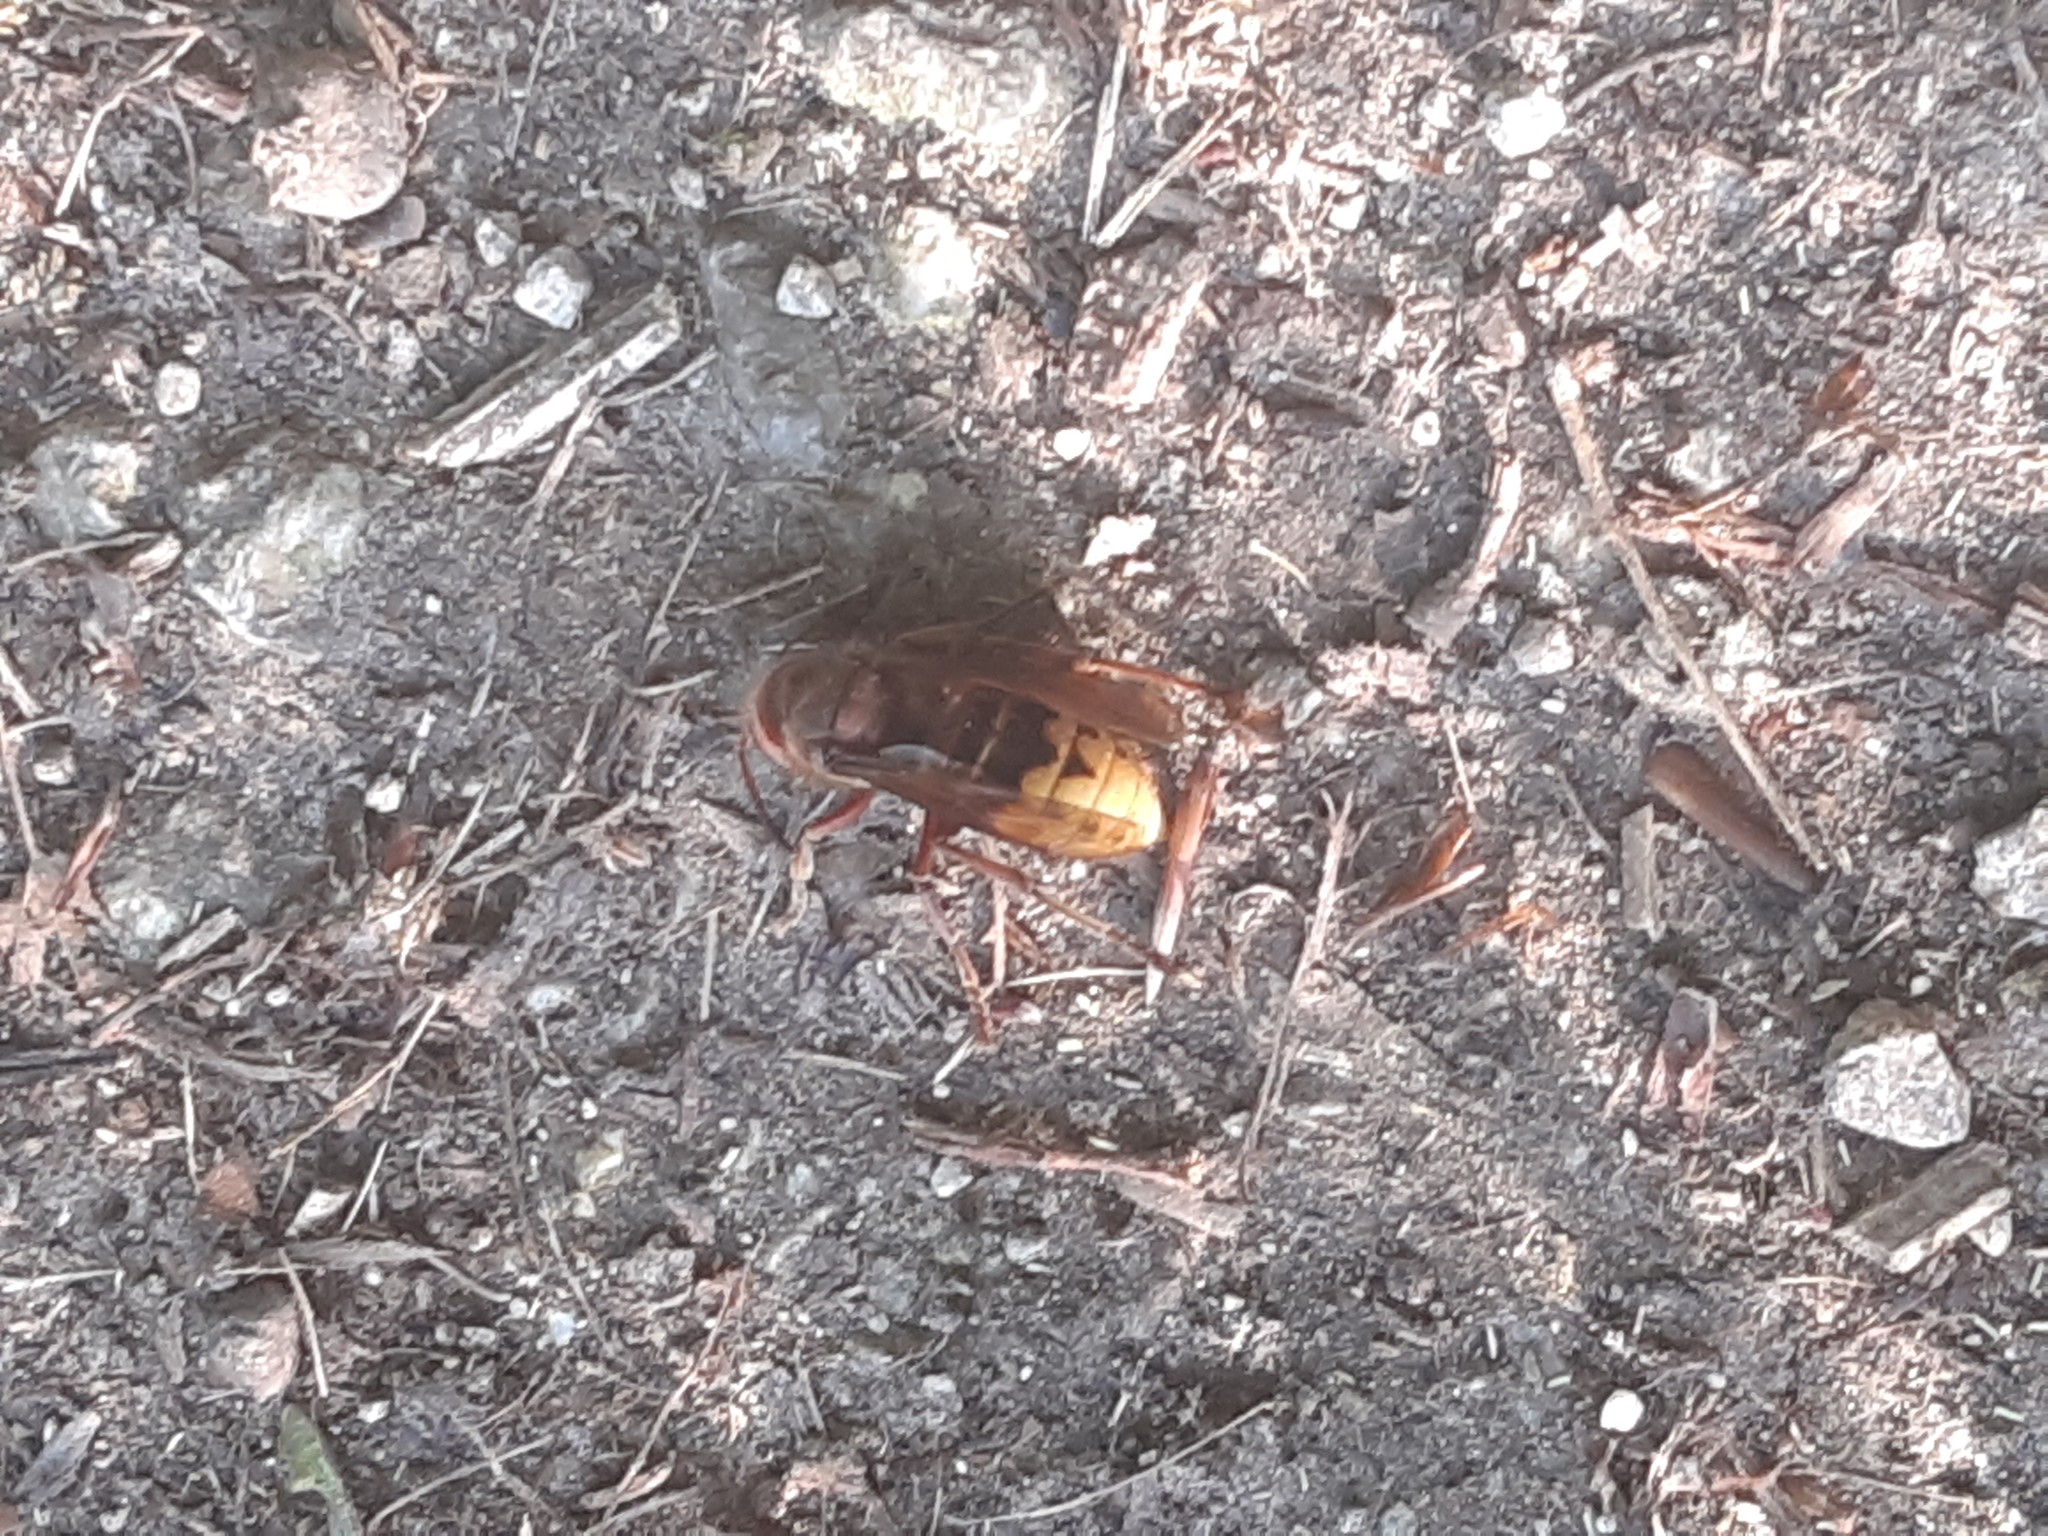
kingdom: Animalia
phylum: Arthropoda
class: Insecta
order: Hymenoptera
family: Vespidae
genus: Vespa
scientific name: Vespa crabro
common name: Hornet
